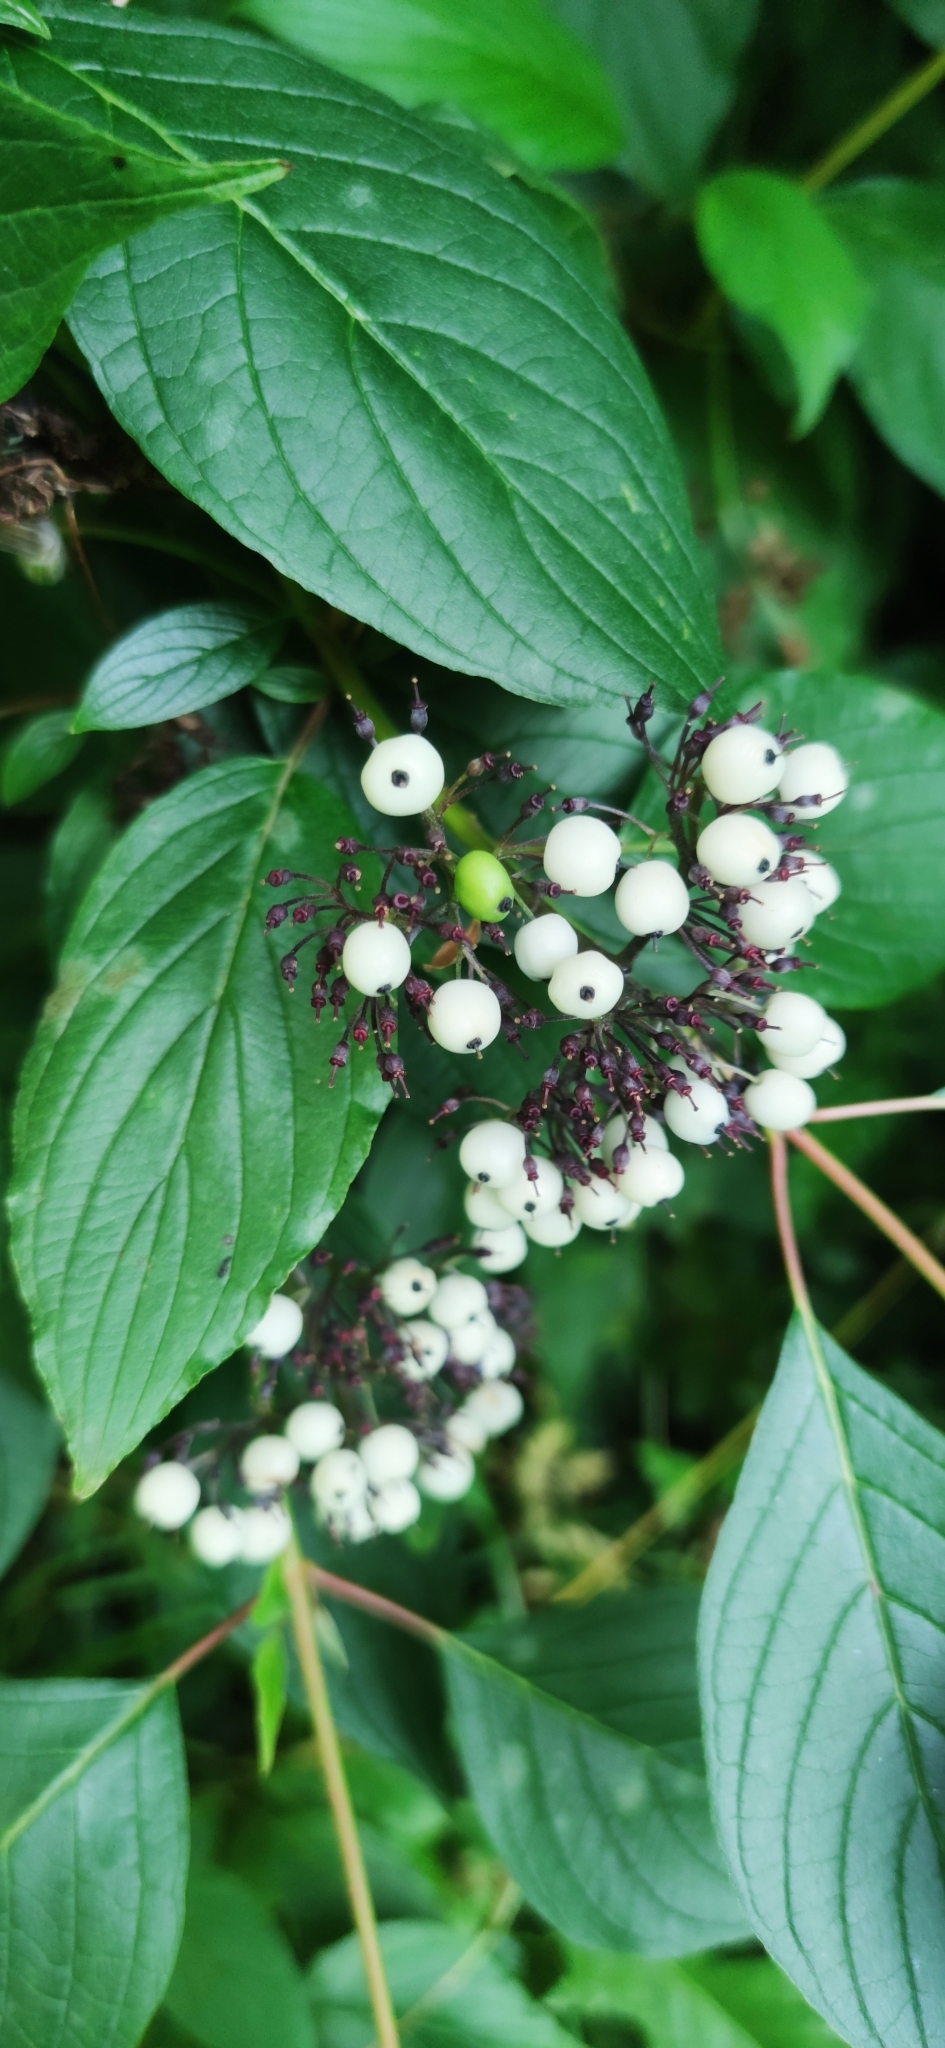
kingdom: Plantae
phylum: Tracheophyta
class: Magnoliopsida
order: Cornales
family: Cornaceae
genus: Cornus
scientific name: Cornus alba
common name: White dogwood
